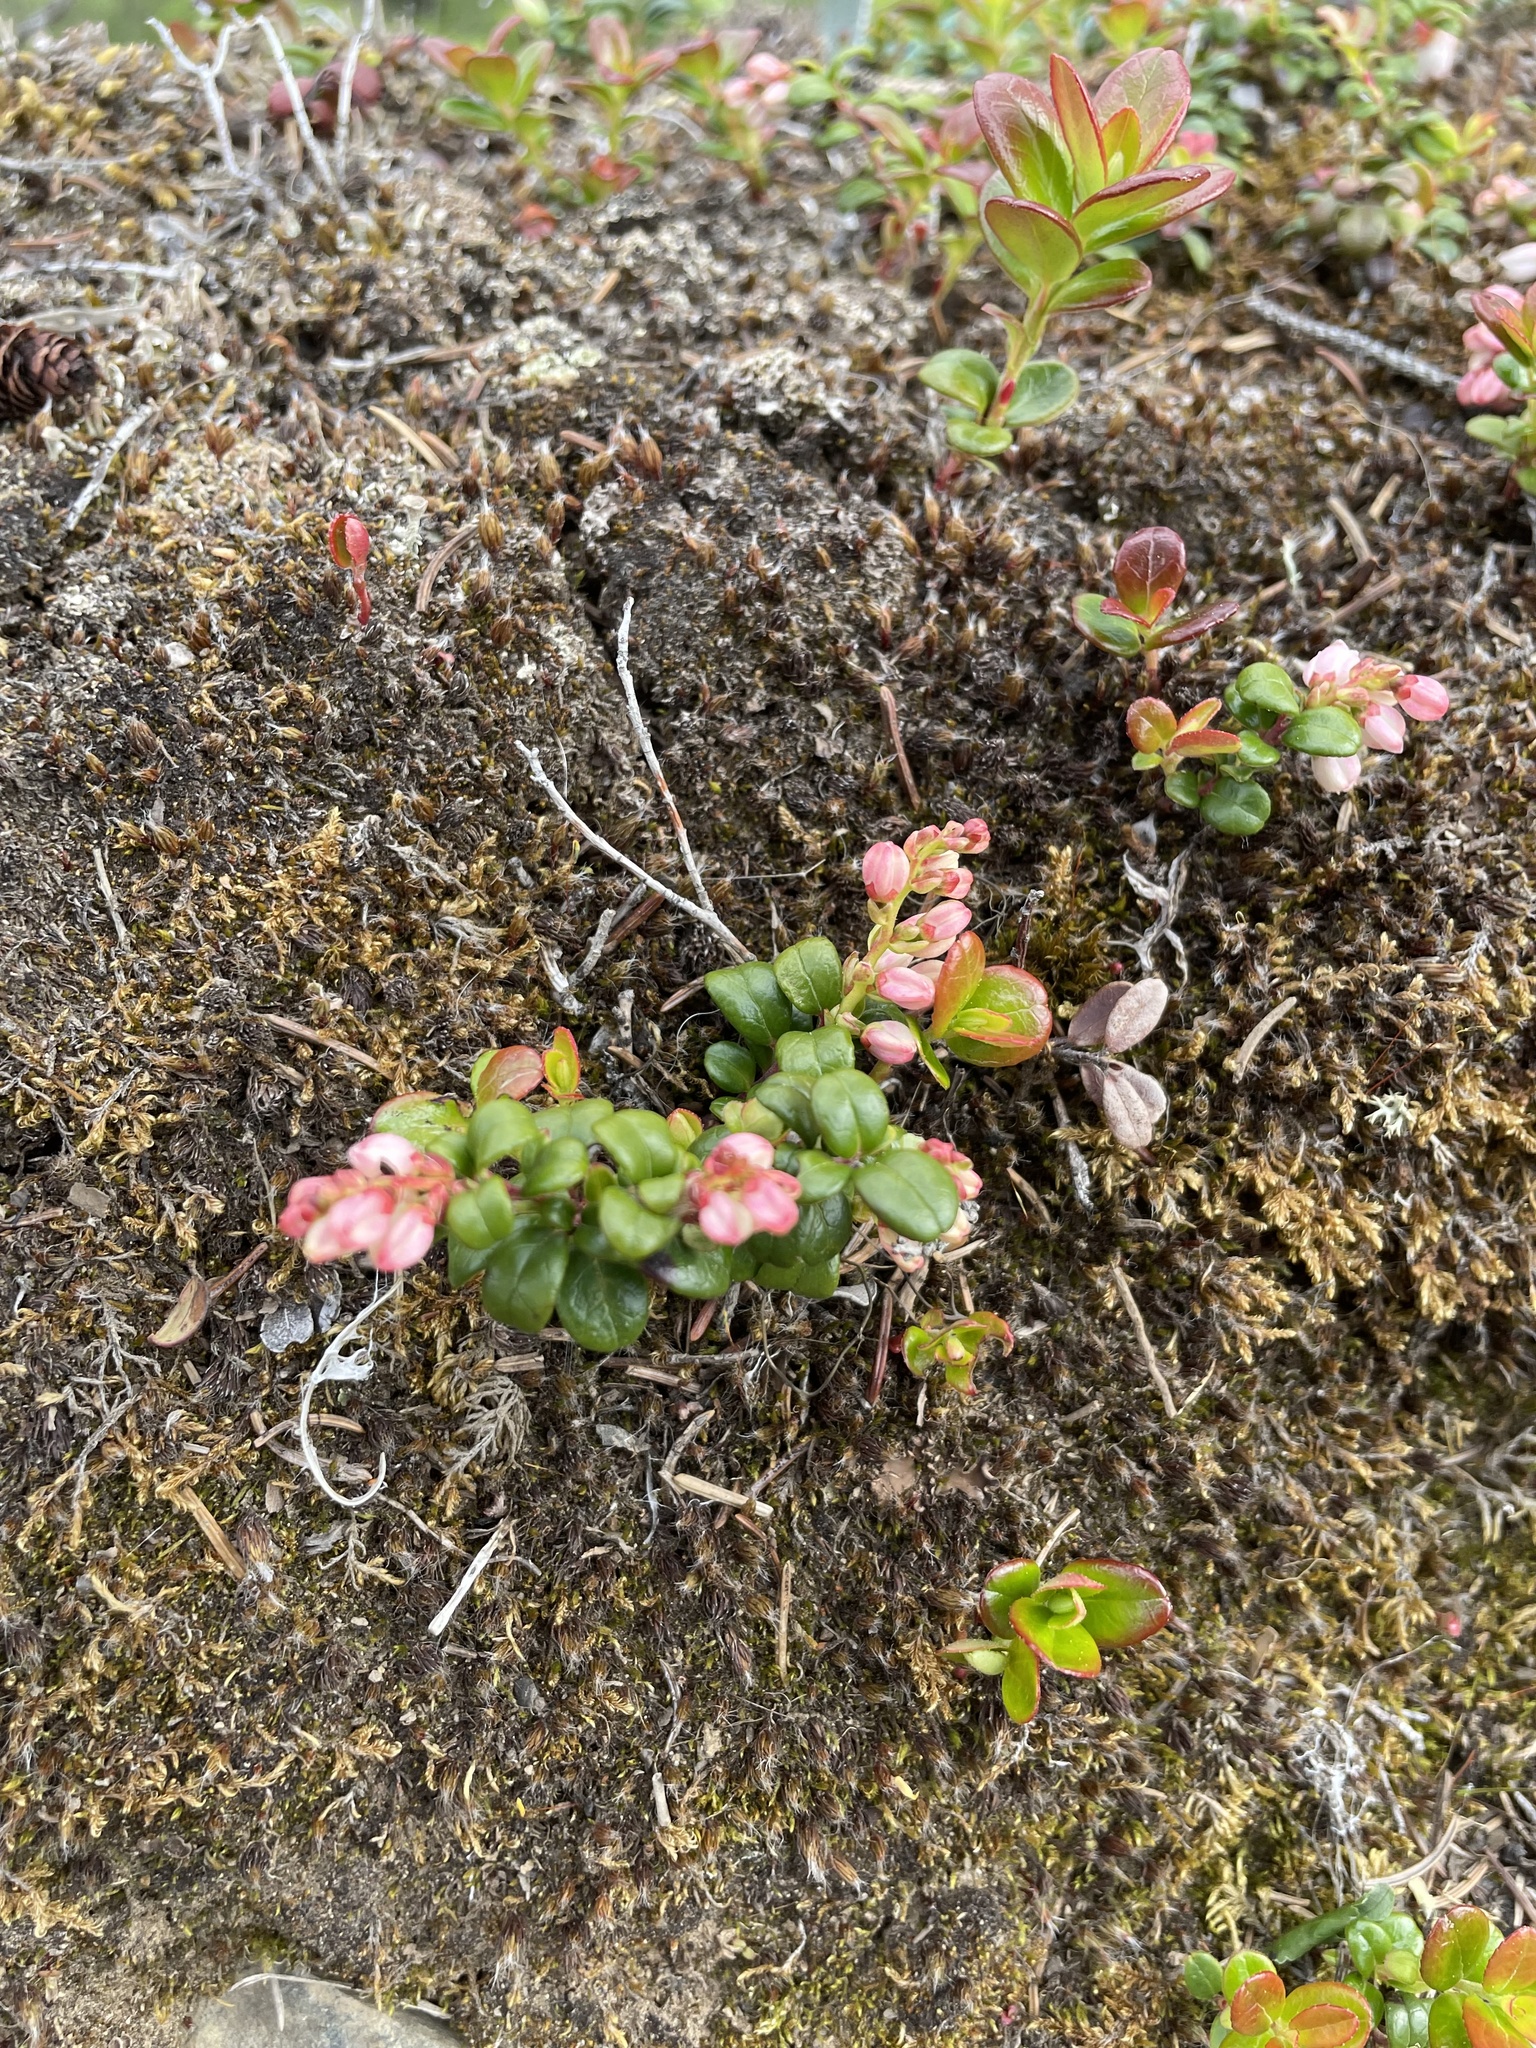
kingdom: Plantae
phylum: Tracheophyta
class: Magnoliopsida
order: Ericales
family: Ericaceae
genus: Vaccinium
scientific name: Vaccinium vitis-idaea
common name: Cowberry
